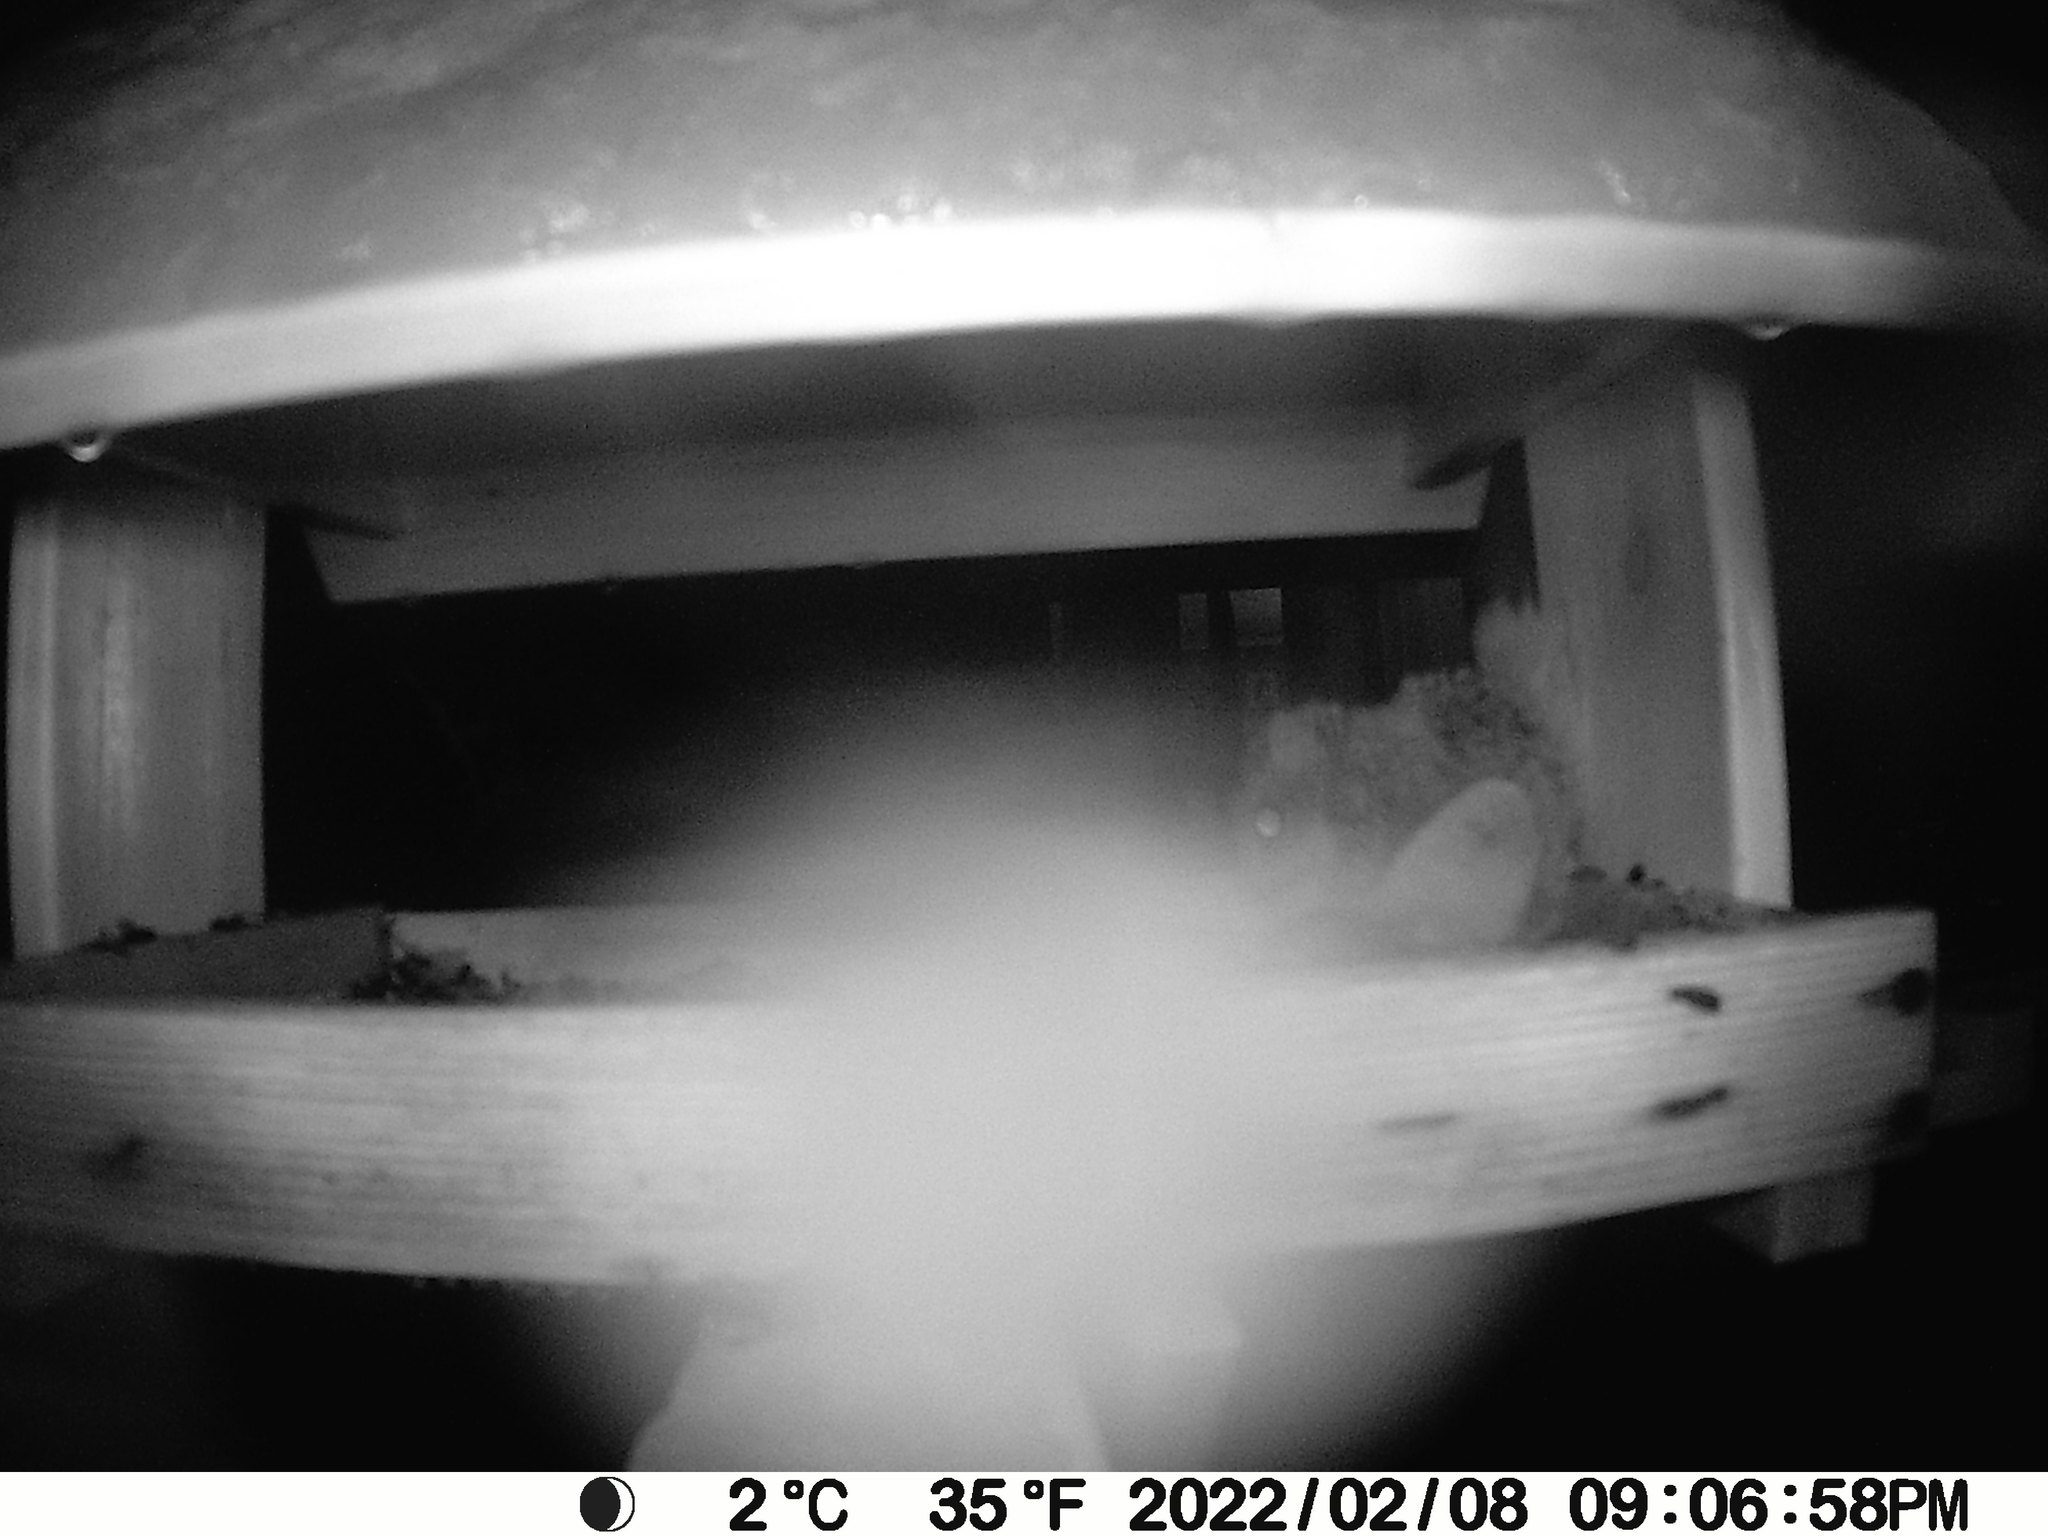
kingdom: Animalia
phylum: Chordata
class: Mammalia
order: Rodentia
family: Sciuridae
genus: Glaucomys
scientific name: Glaucomys sabrinus
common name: Northern flying squirrel
